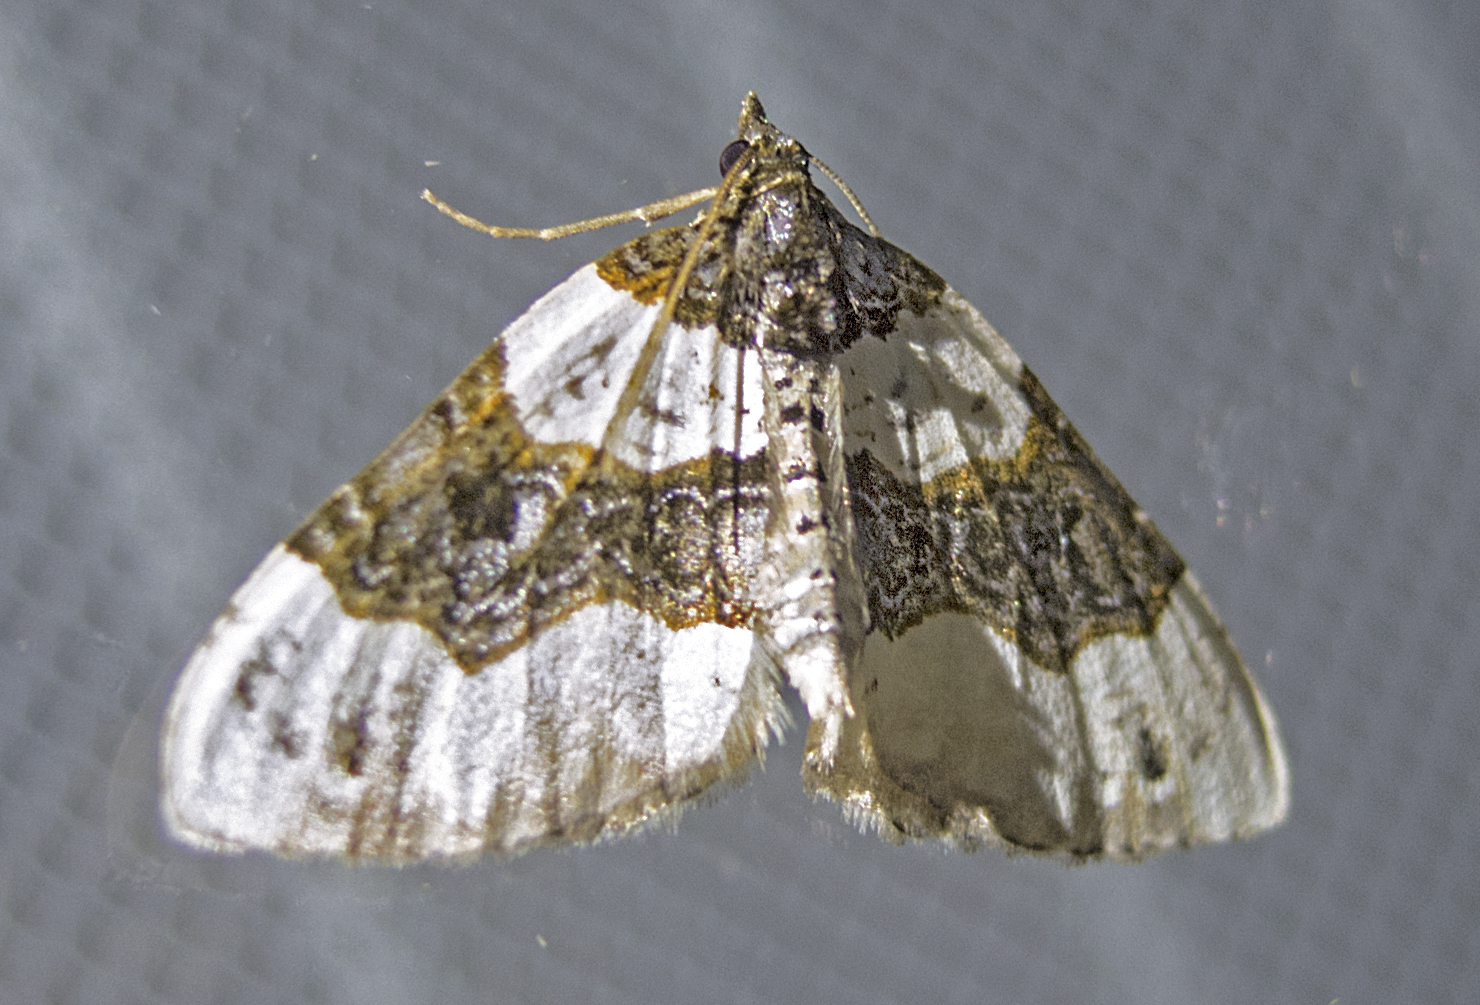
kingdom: Animalia
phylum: Arthropoda
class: Insecta
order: Lepidoptera
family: Geometridae
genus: Cosmorhoe
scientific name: Cosmorhoe ocellata
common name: Purple bar
